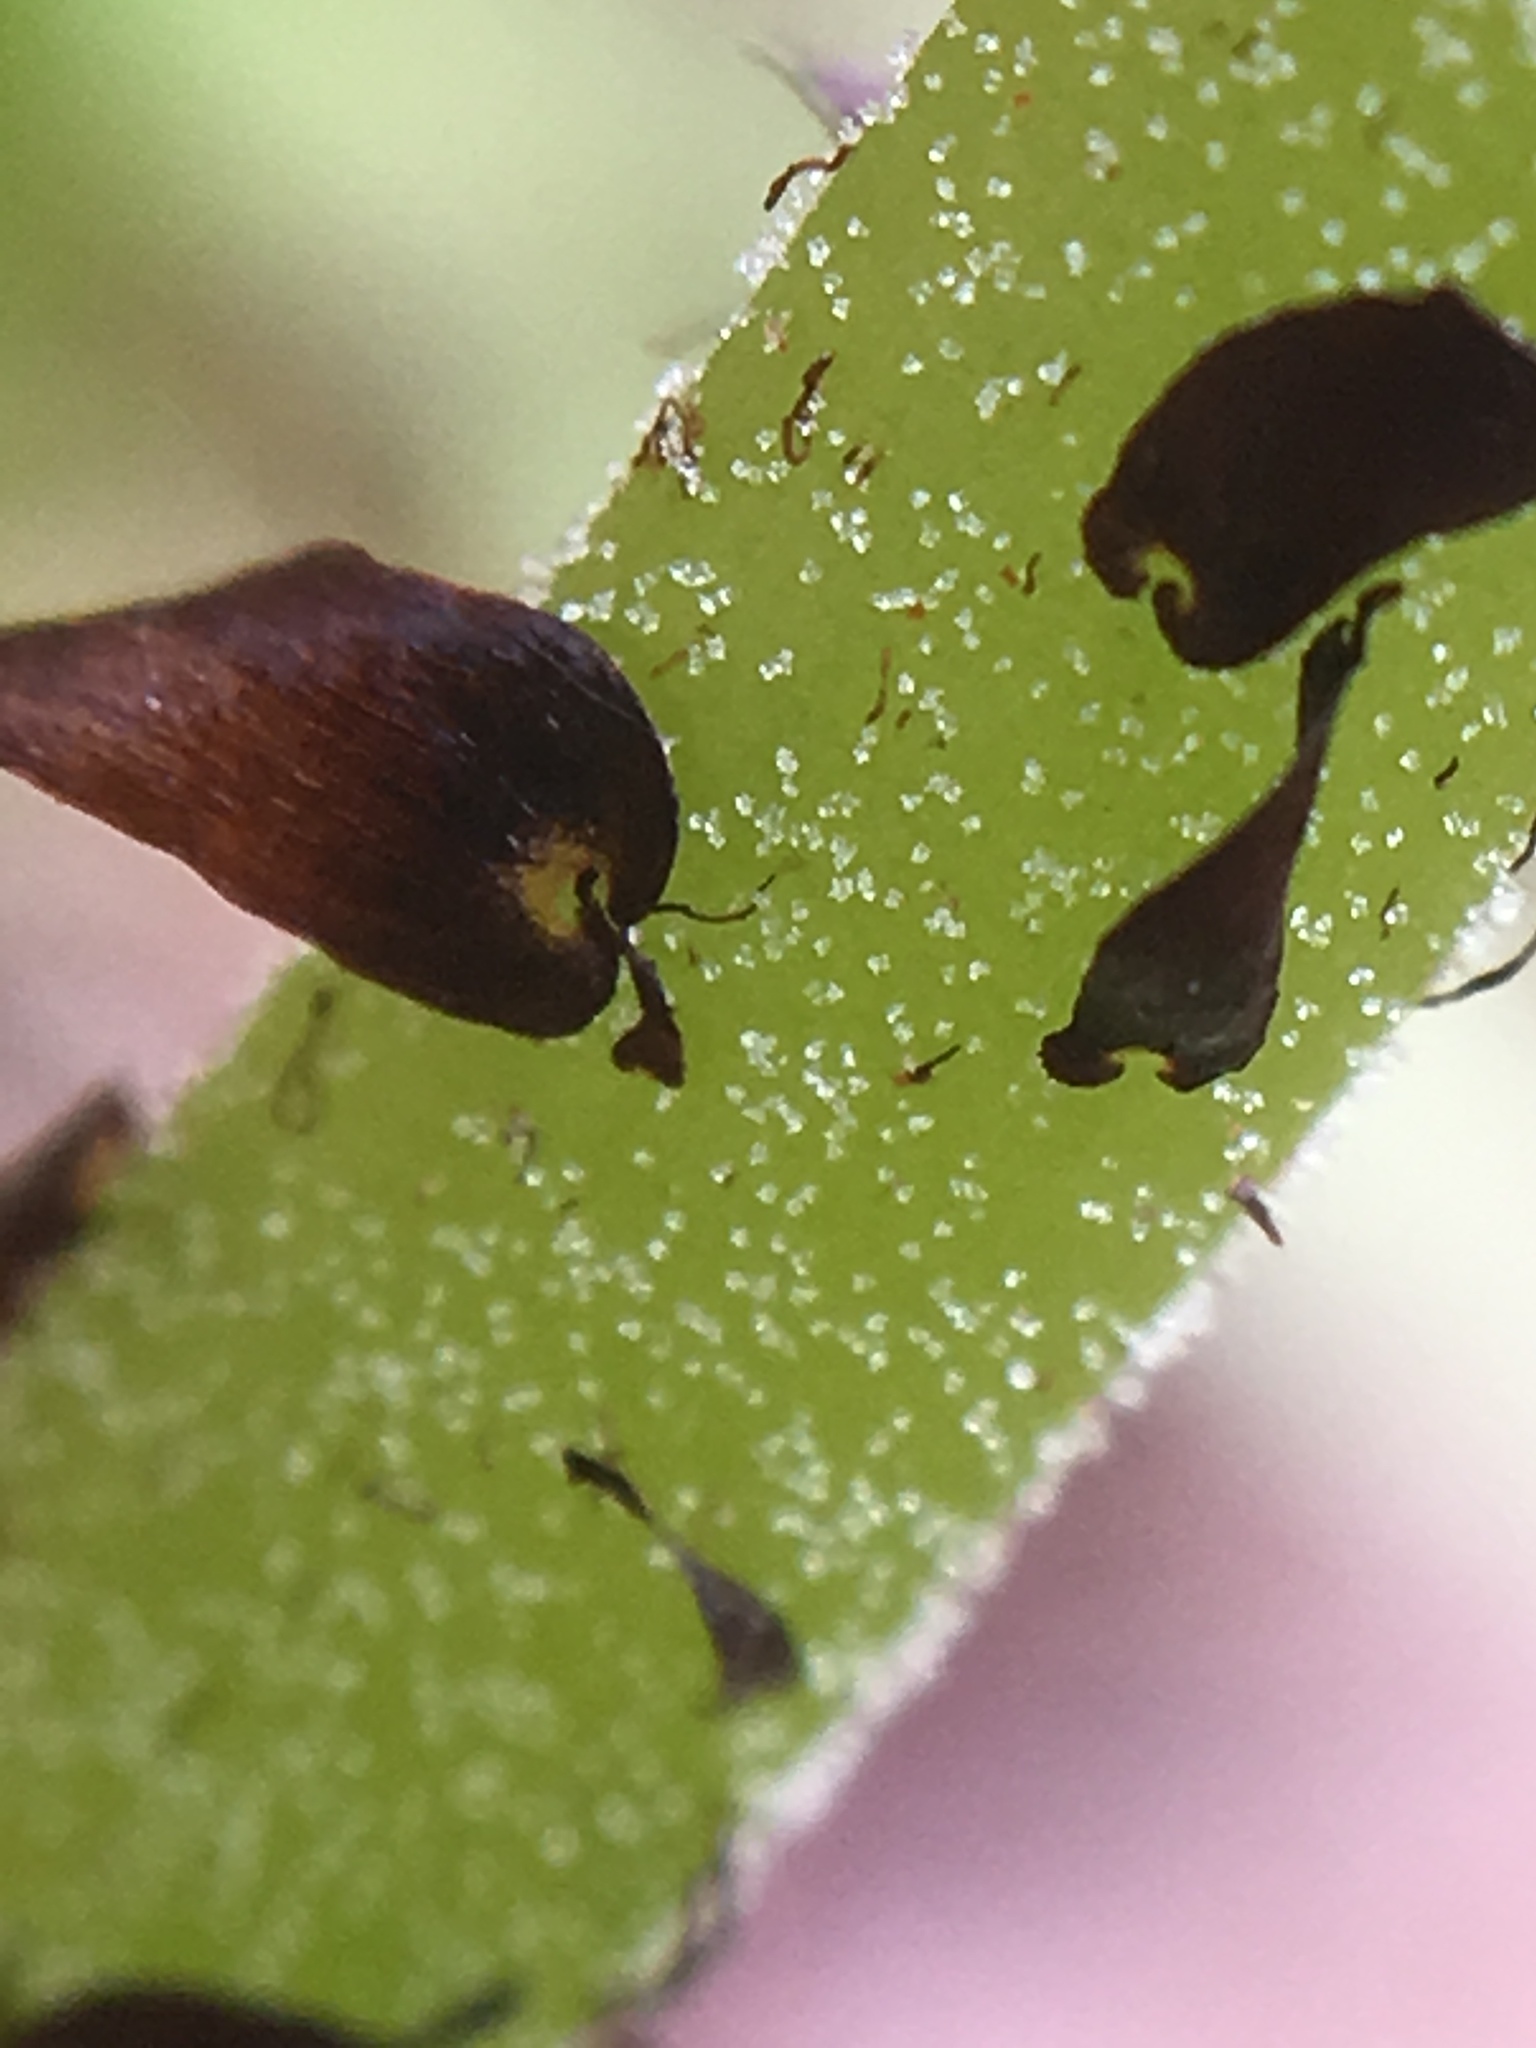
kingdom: Plantae
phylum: Tracheophyta
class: Polypodiopsida
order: Polypodiales
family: Athyriaceae
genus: Athyrium
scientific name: Athyrium angustum
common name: Northern lady fern
